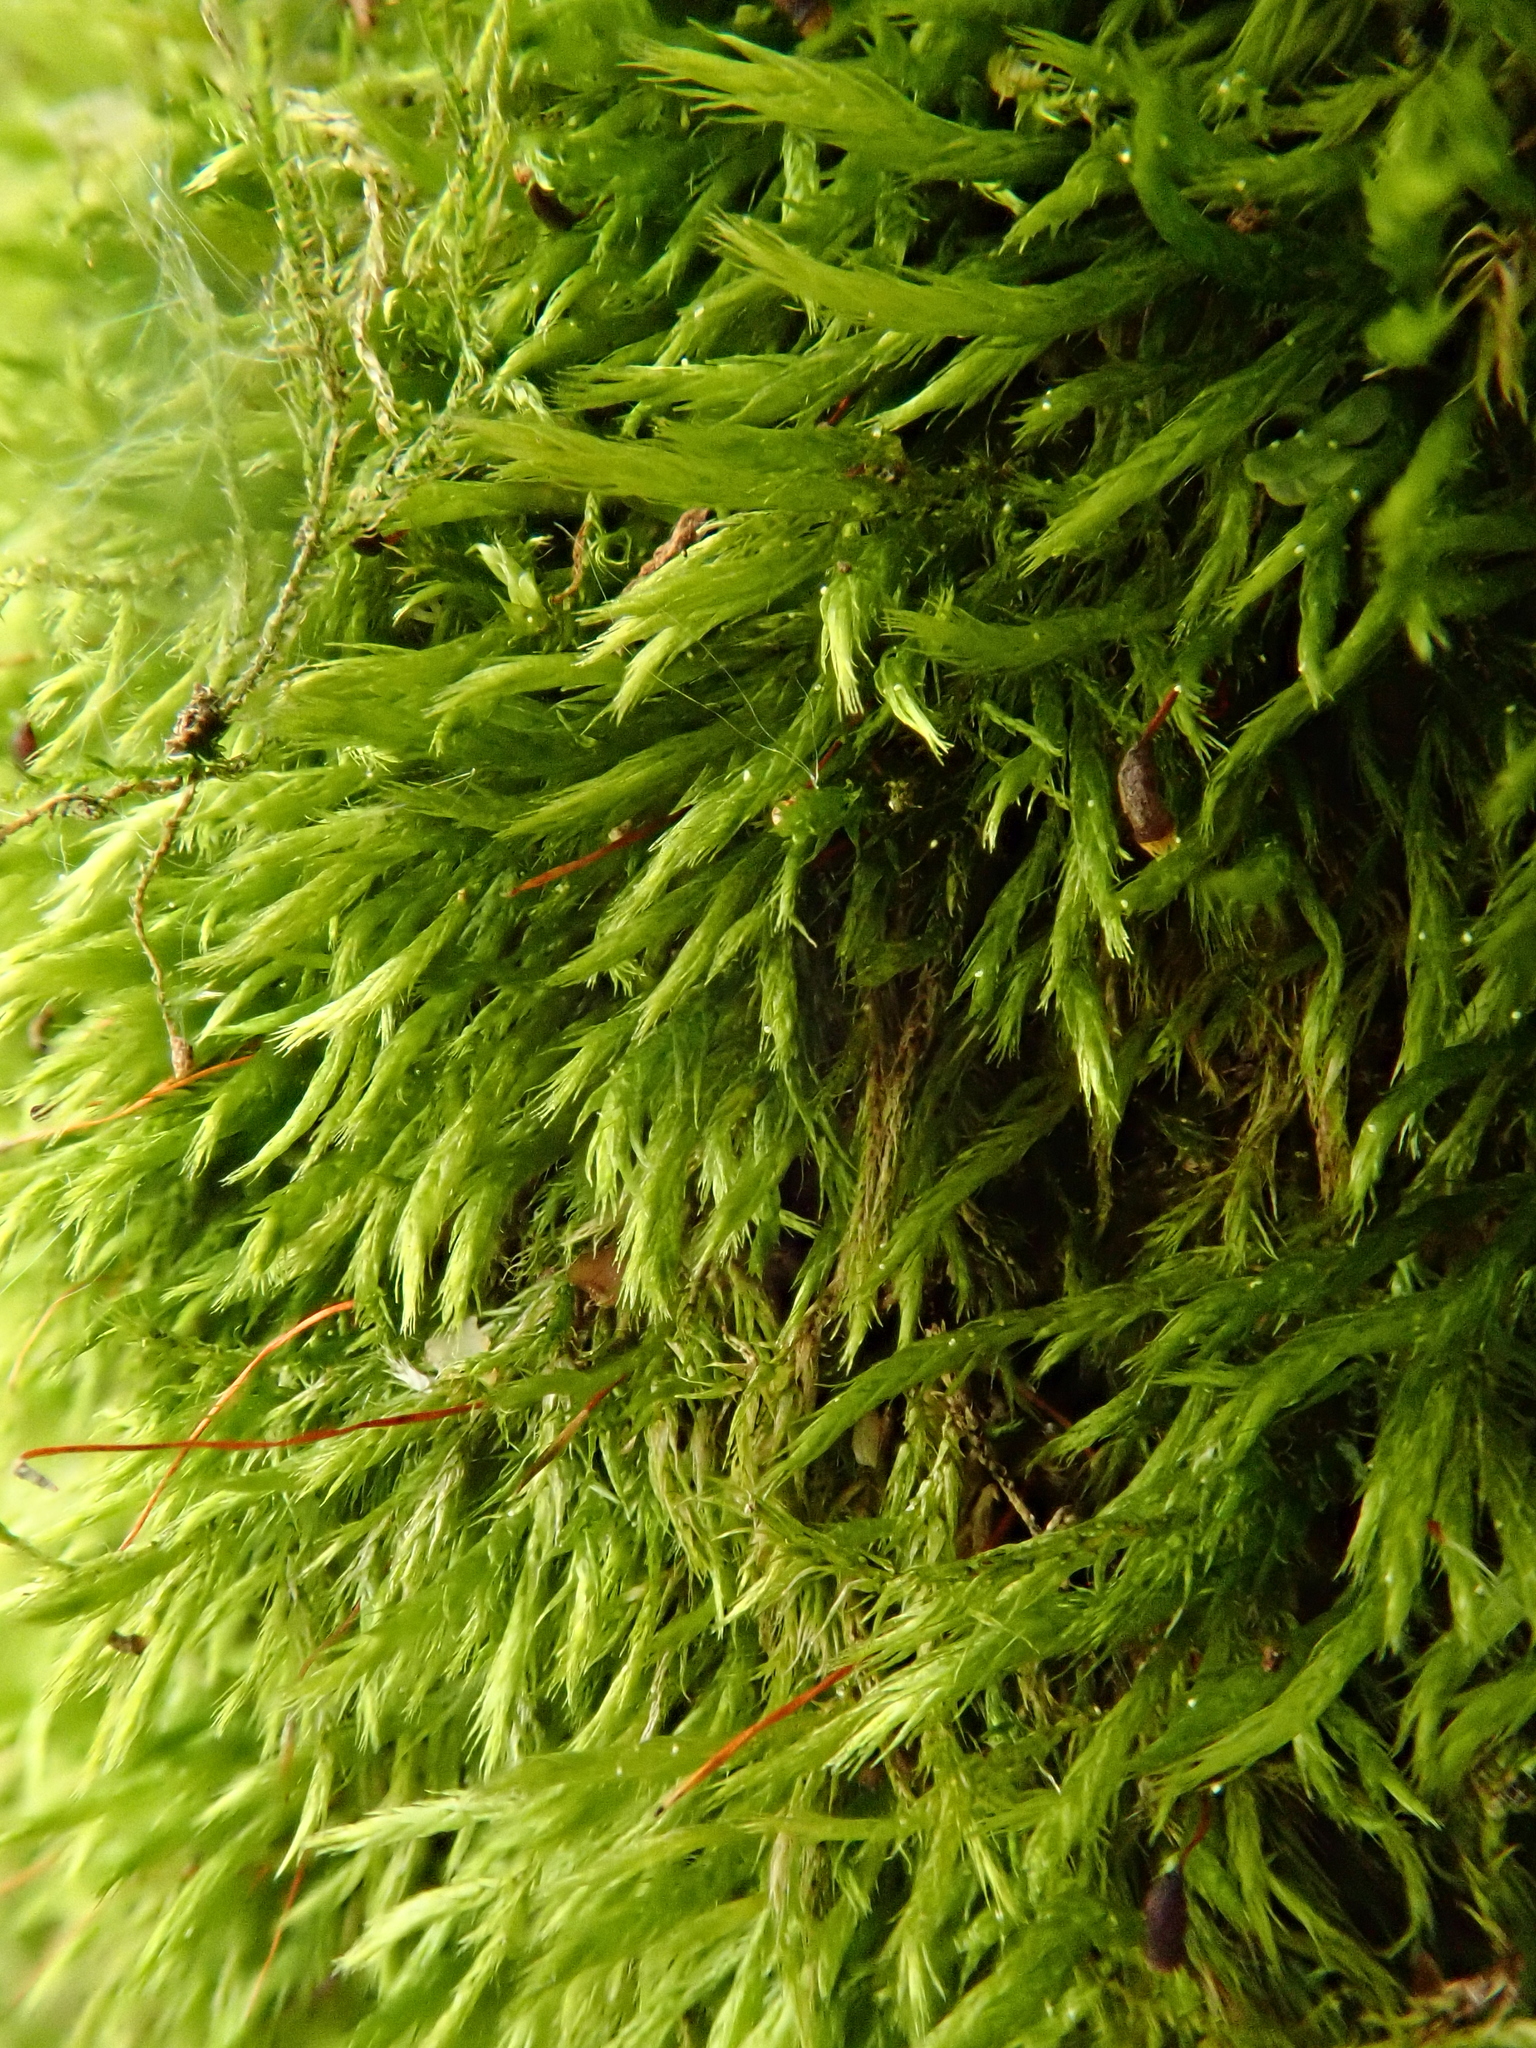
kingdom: Plantae
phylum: Bryophyta
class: Bryopsida
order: Hypnales
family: Brachytheciaceae
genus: Sciuro-hypnum
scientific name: Sciuro-hypnum populeum
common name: Matted feather-moss
